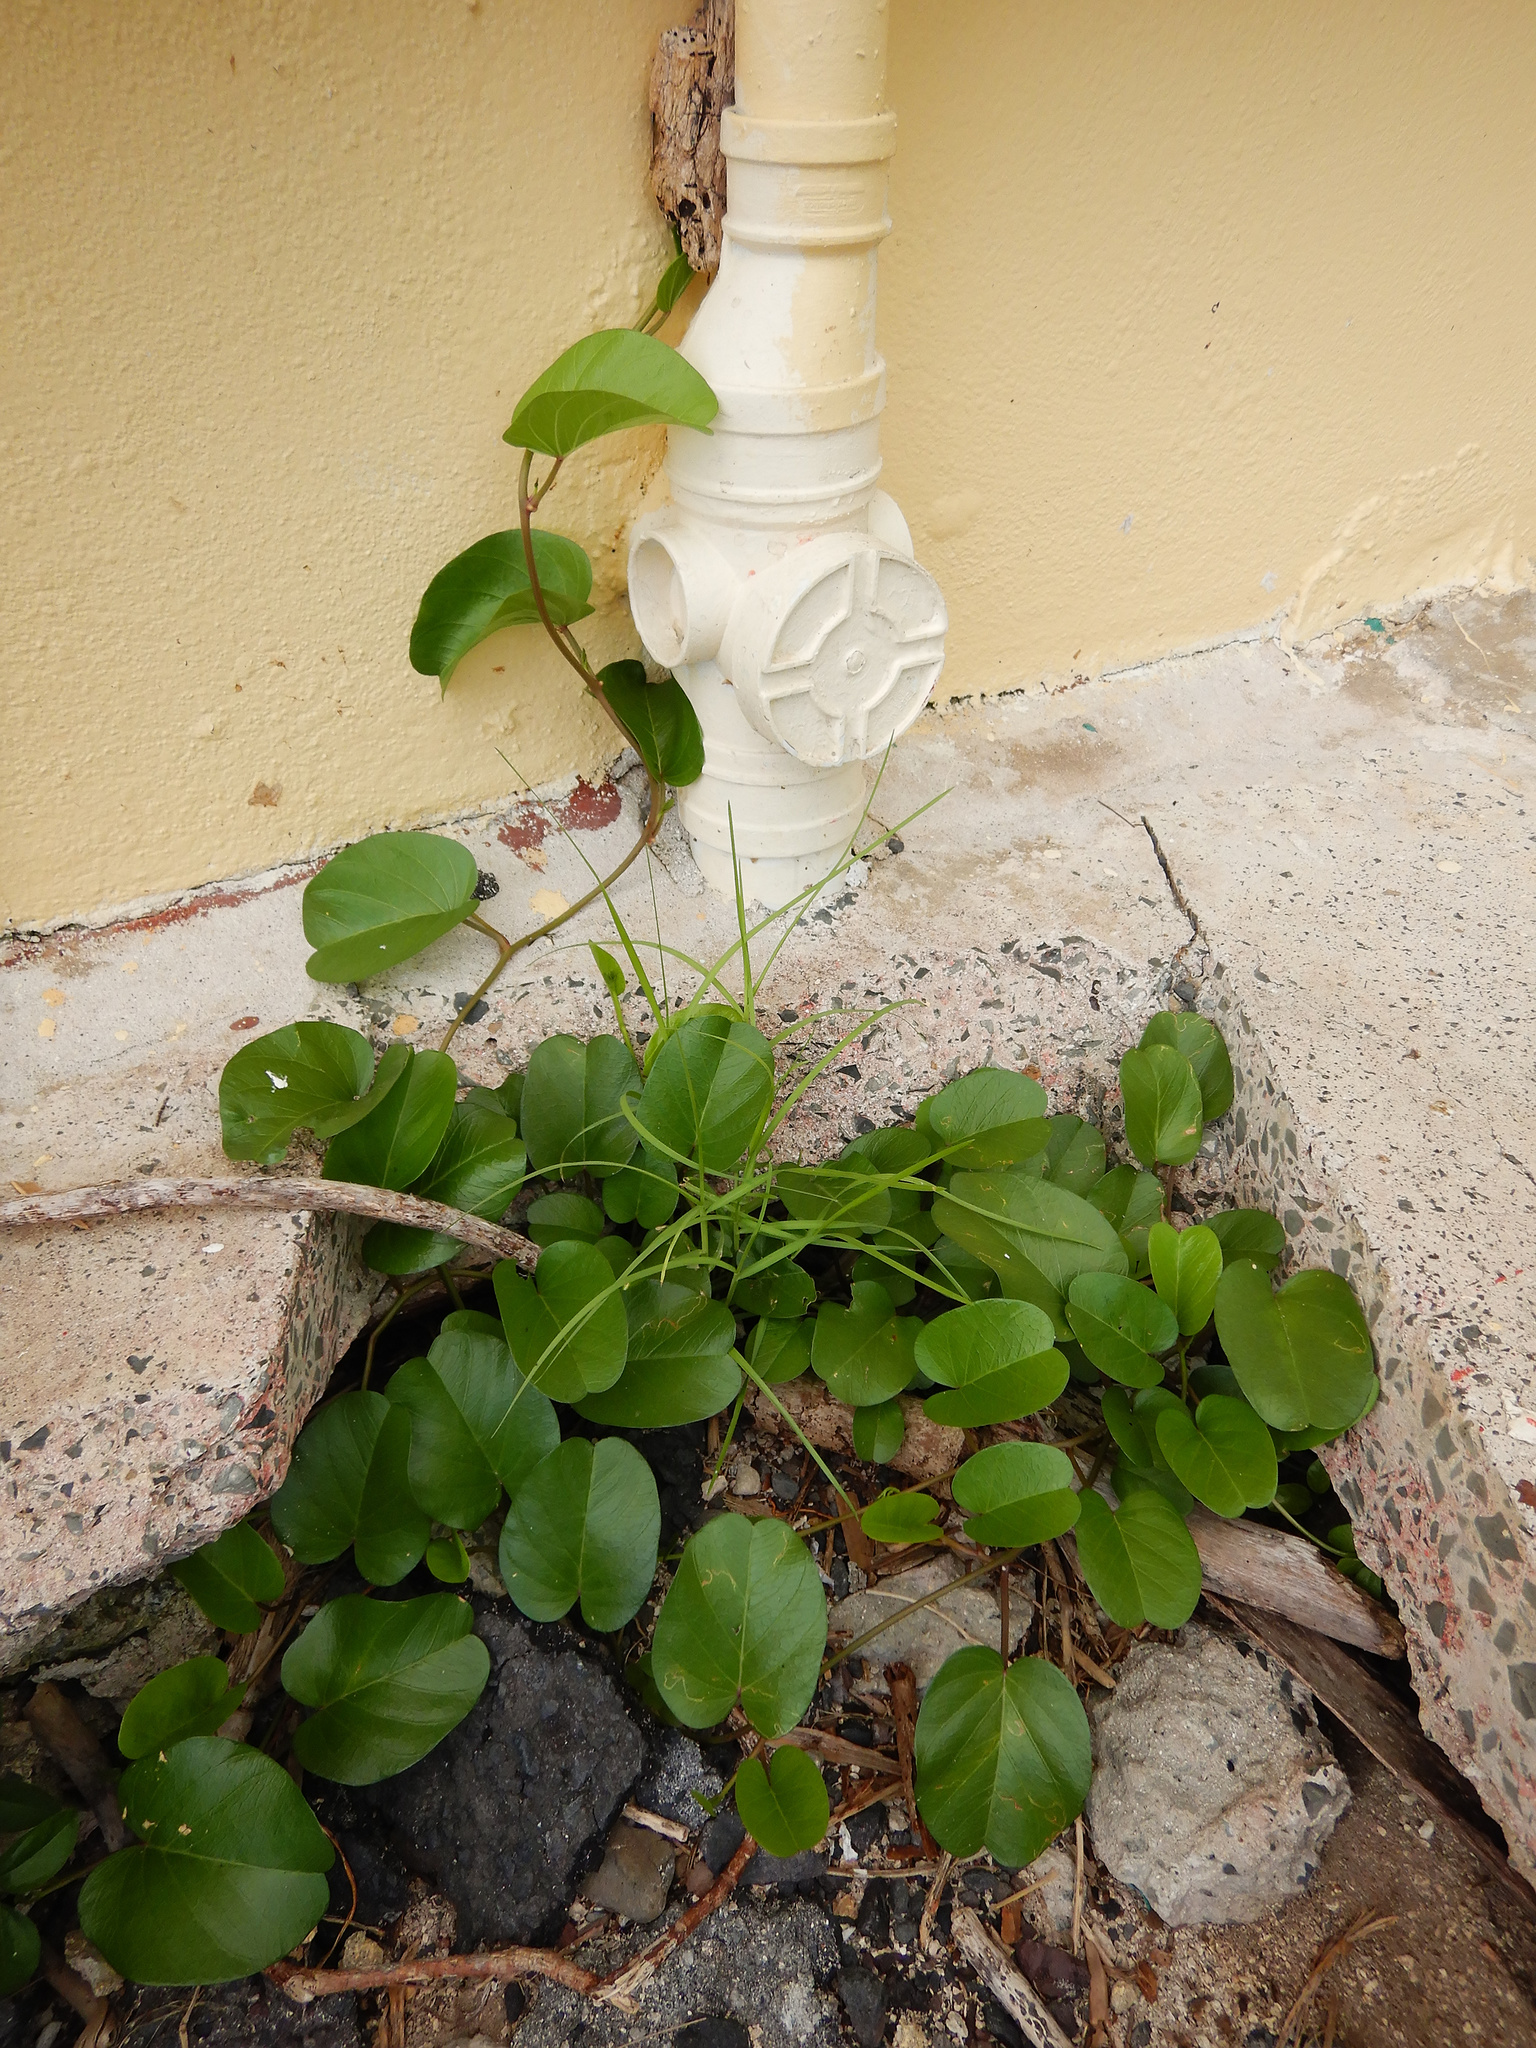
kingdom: Plantae
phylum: Tracheophyta
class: Magnoliopsida
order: Solanales
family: Convolvulaceae
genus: Ipomoea
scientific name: Ipomoea pes-caprae
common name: Beach morning glory
